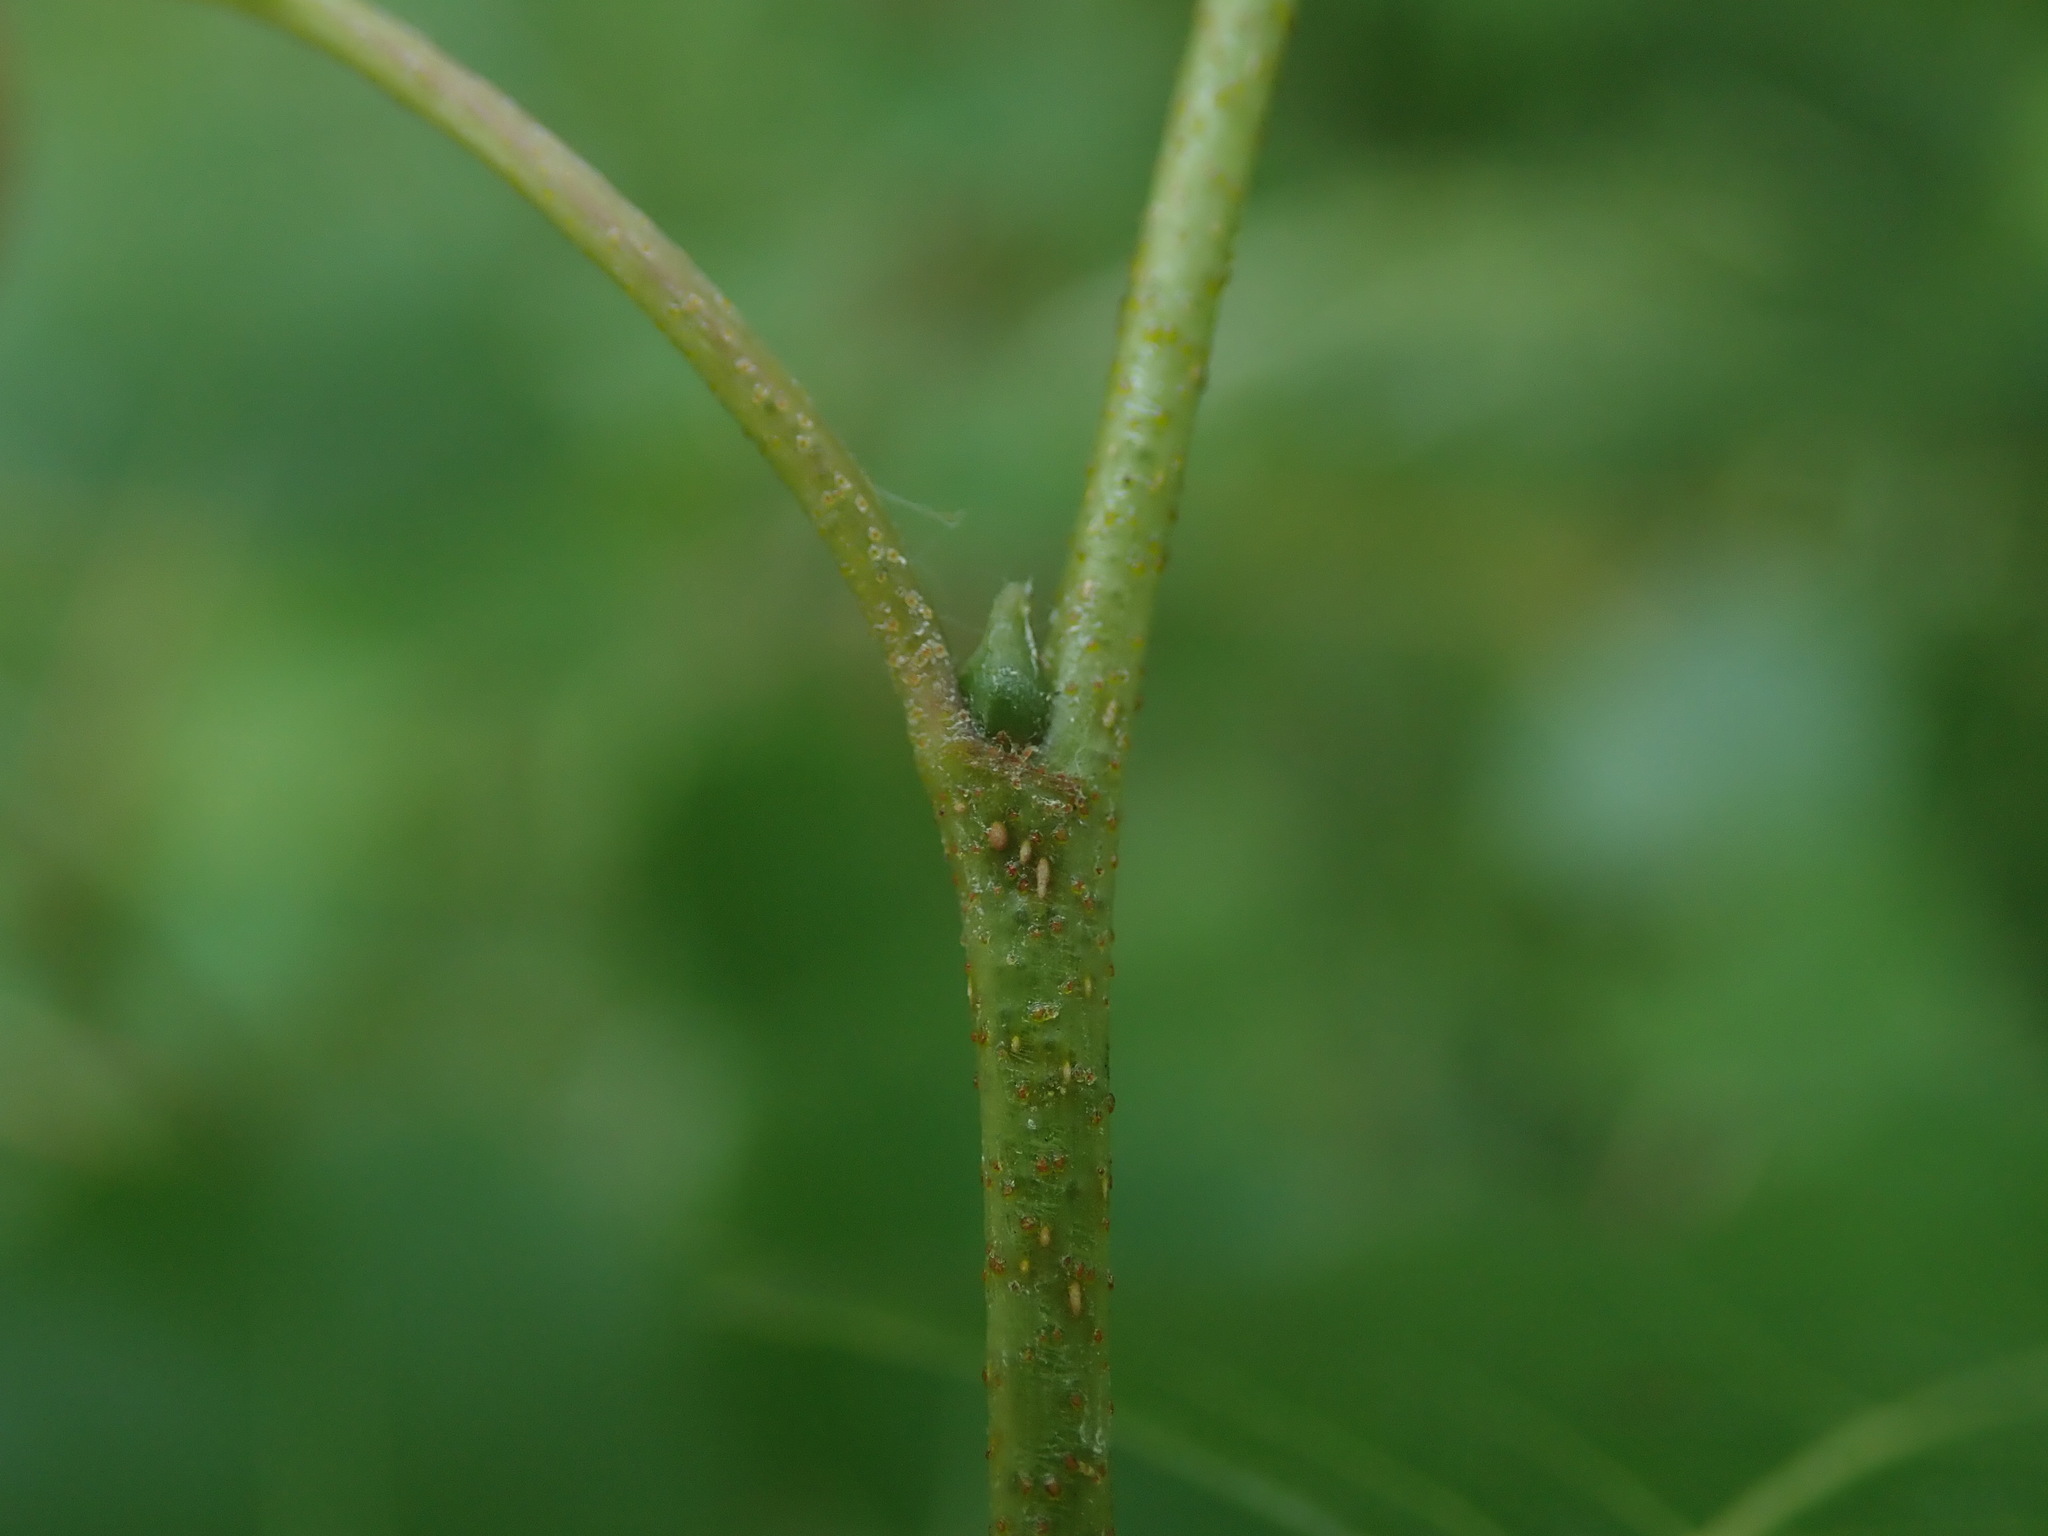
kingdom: Plantae
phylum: Tracheophyta
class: Magnoliopsida
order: Fagales
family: Betulaceae
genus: Betula
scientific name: Betula pendula
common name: Silver birch
